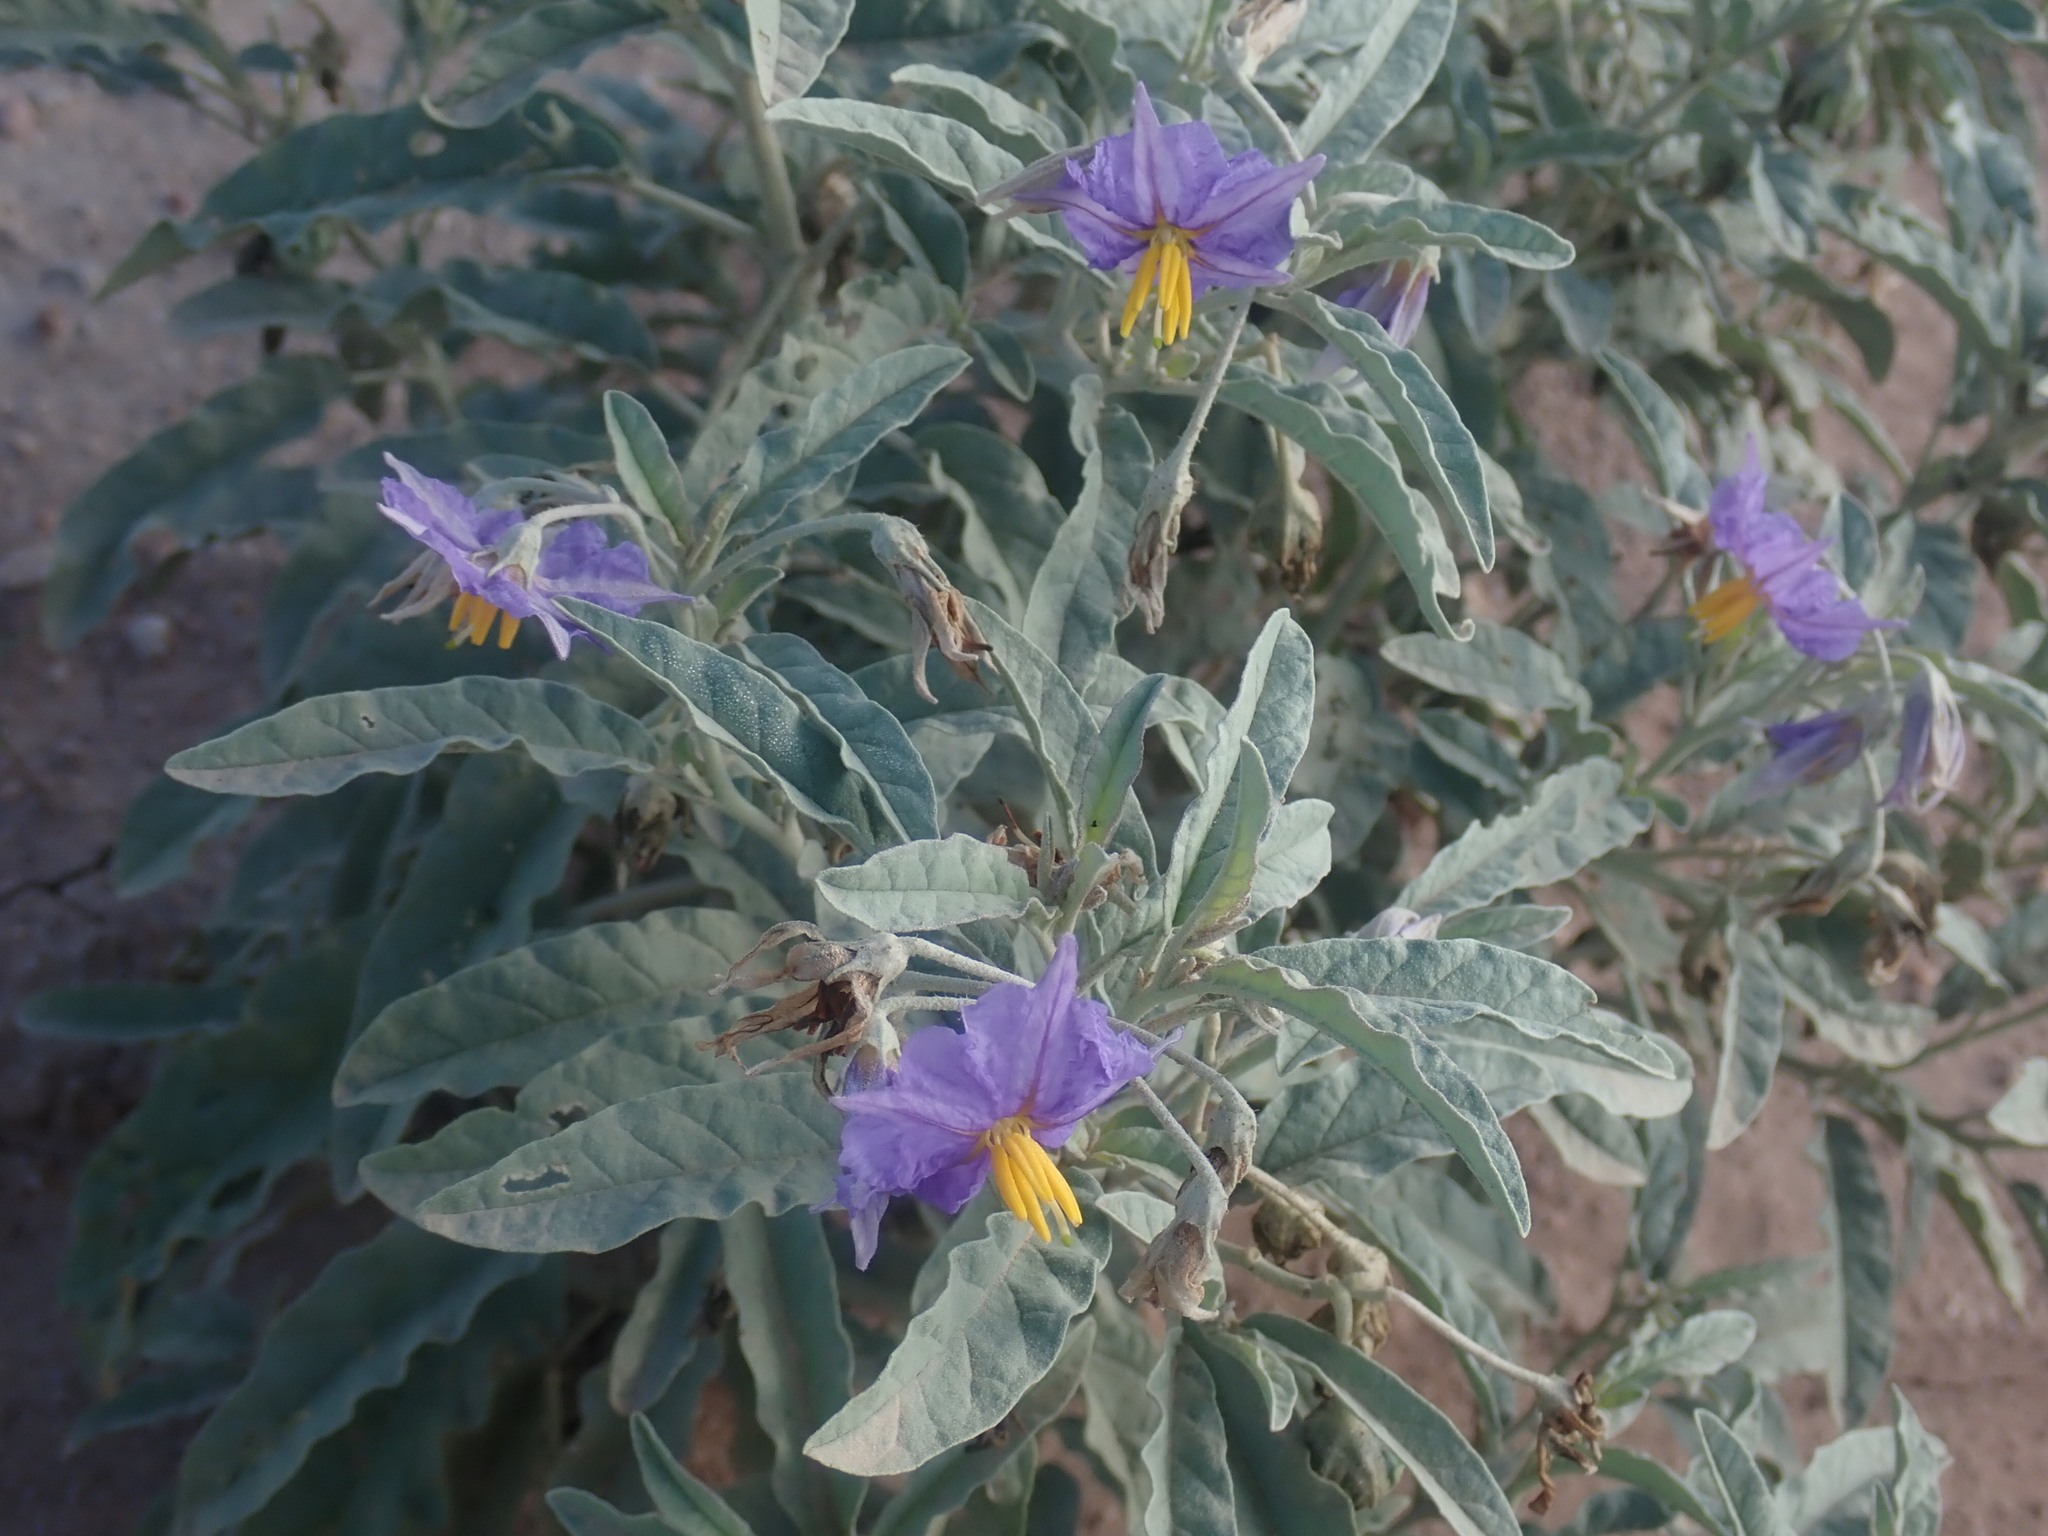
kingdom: Plantae
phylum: Tracheophyta
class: Magnoliopsida
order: Solanales
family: Solanaceae
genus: Solanum
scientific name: Solanum elaeagnifolium
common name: Silverleaf nightshade
